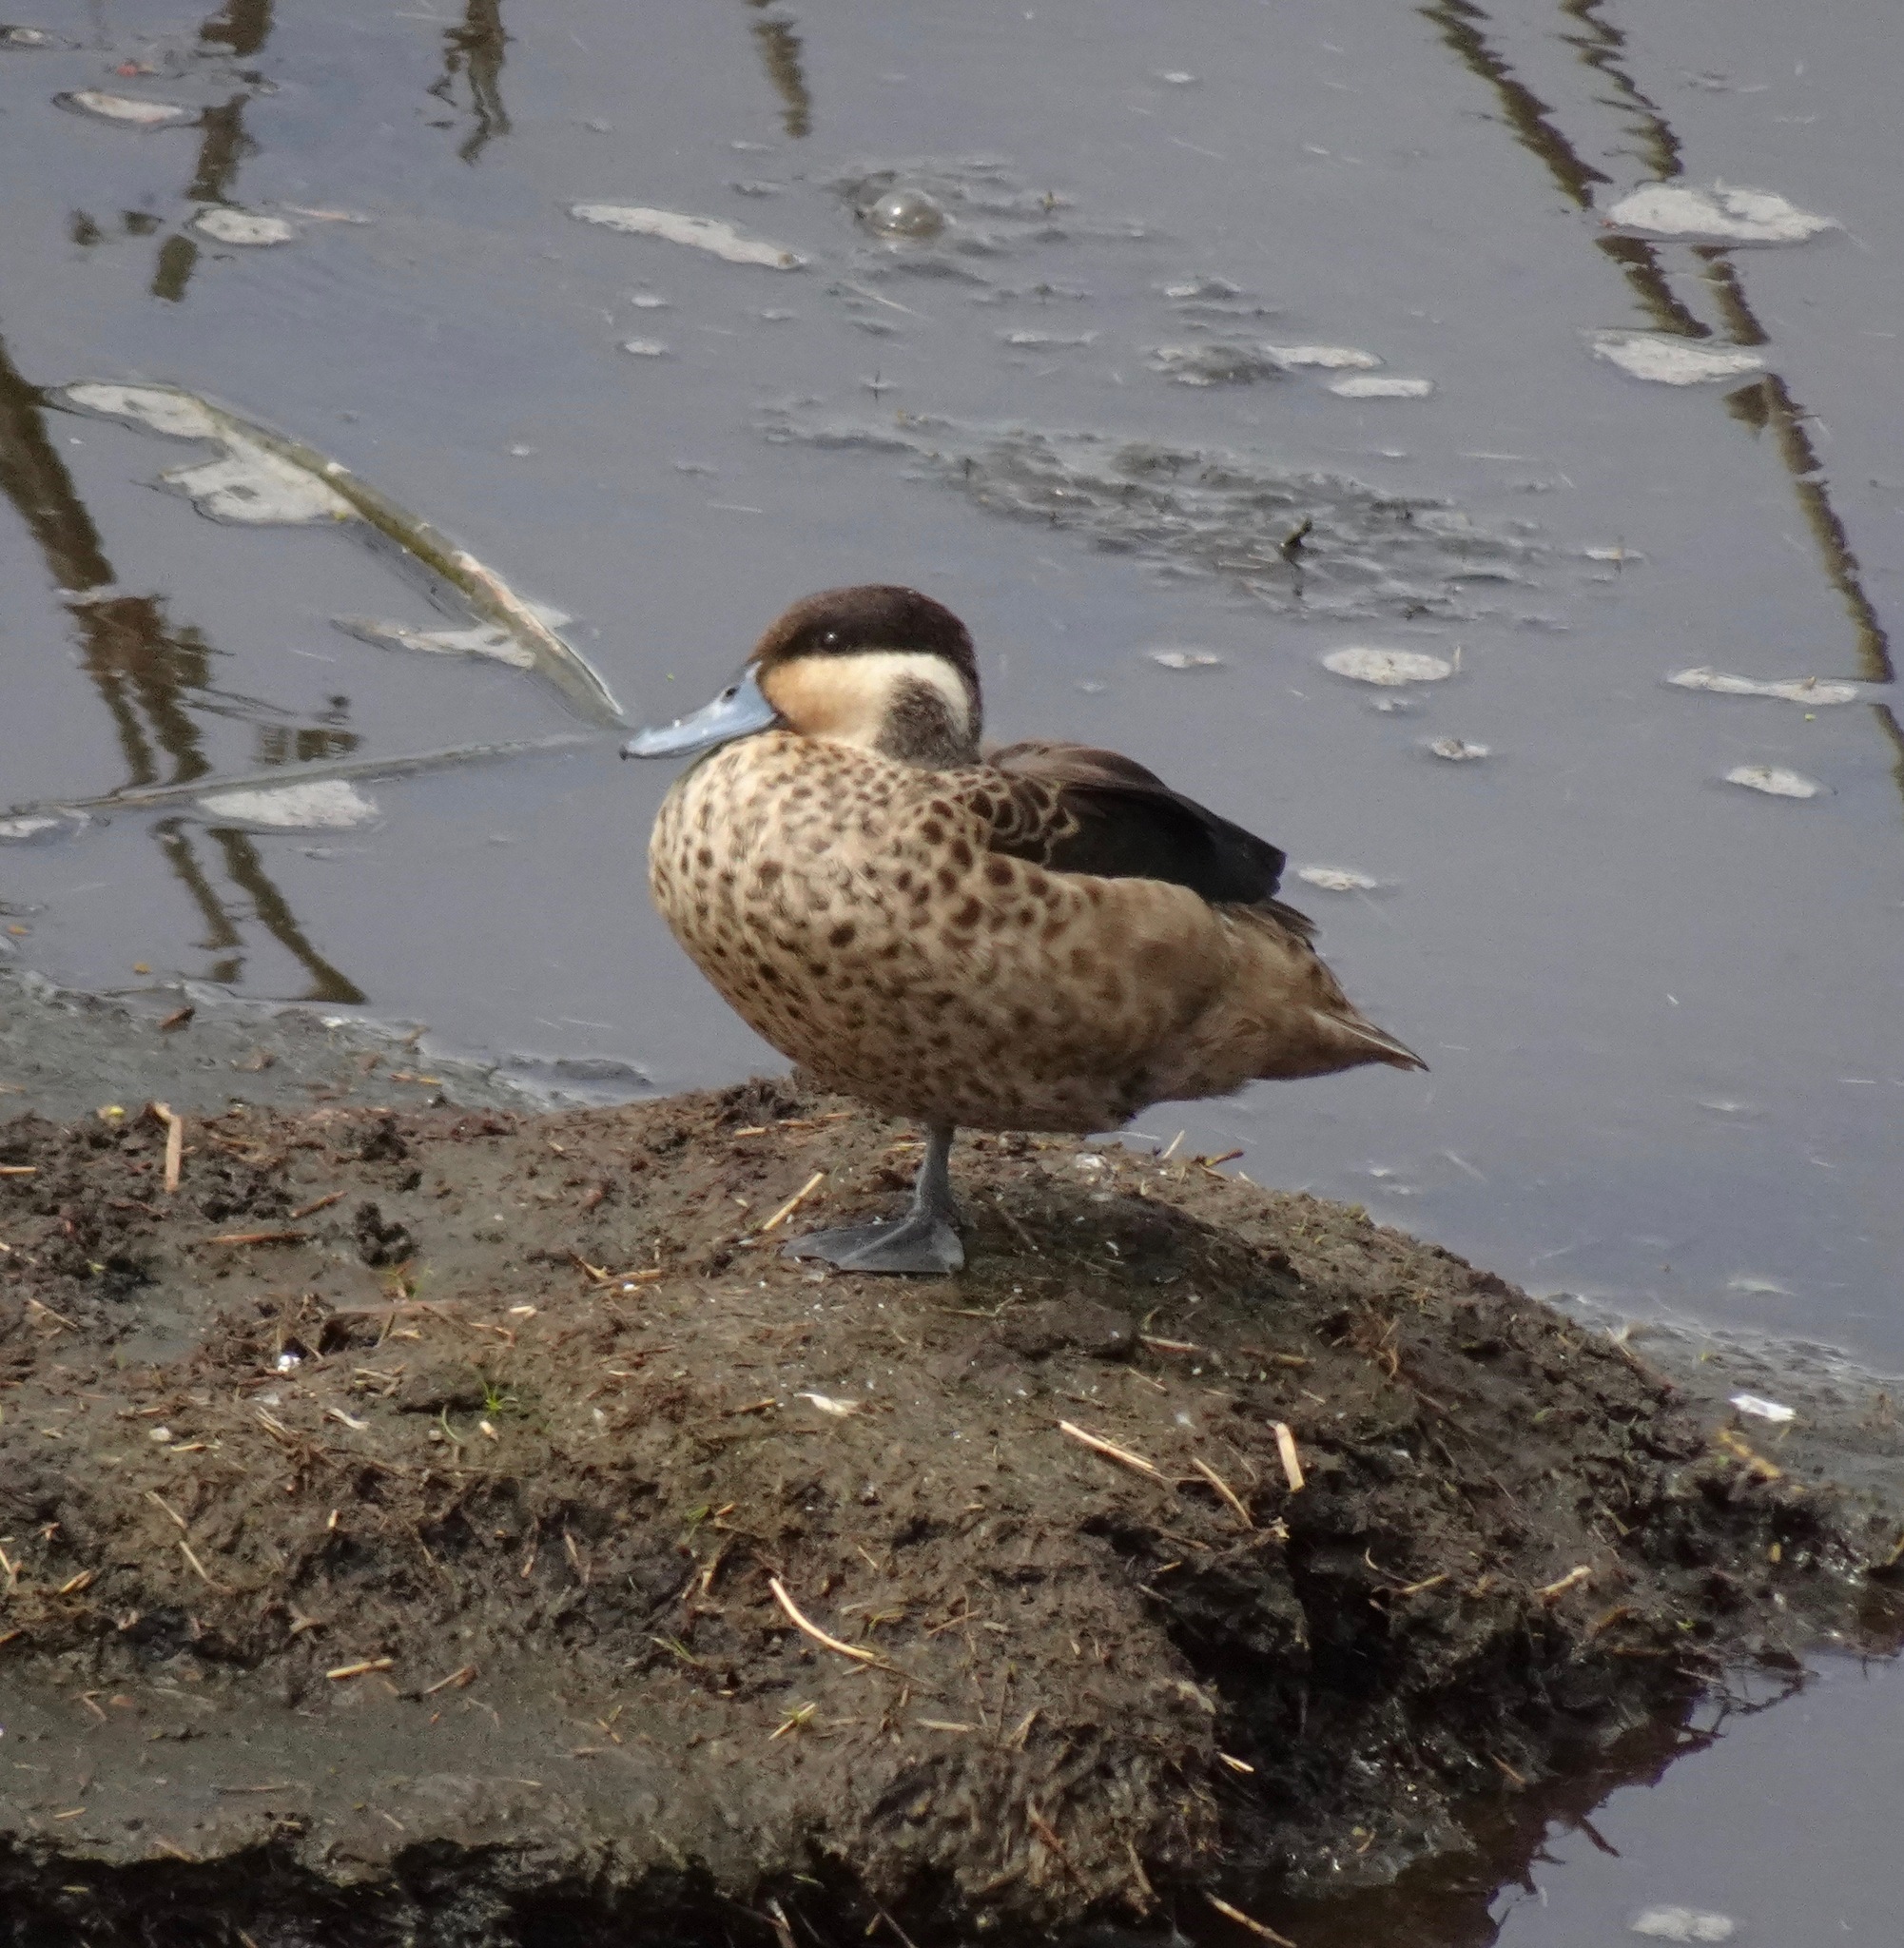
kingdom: Animalia
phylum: Chordata
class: Aves
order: Anseriformes
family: Anatidae
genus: Spatula
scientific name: Spatula hottentota
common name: Blue-billed teal
